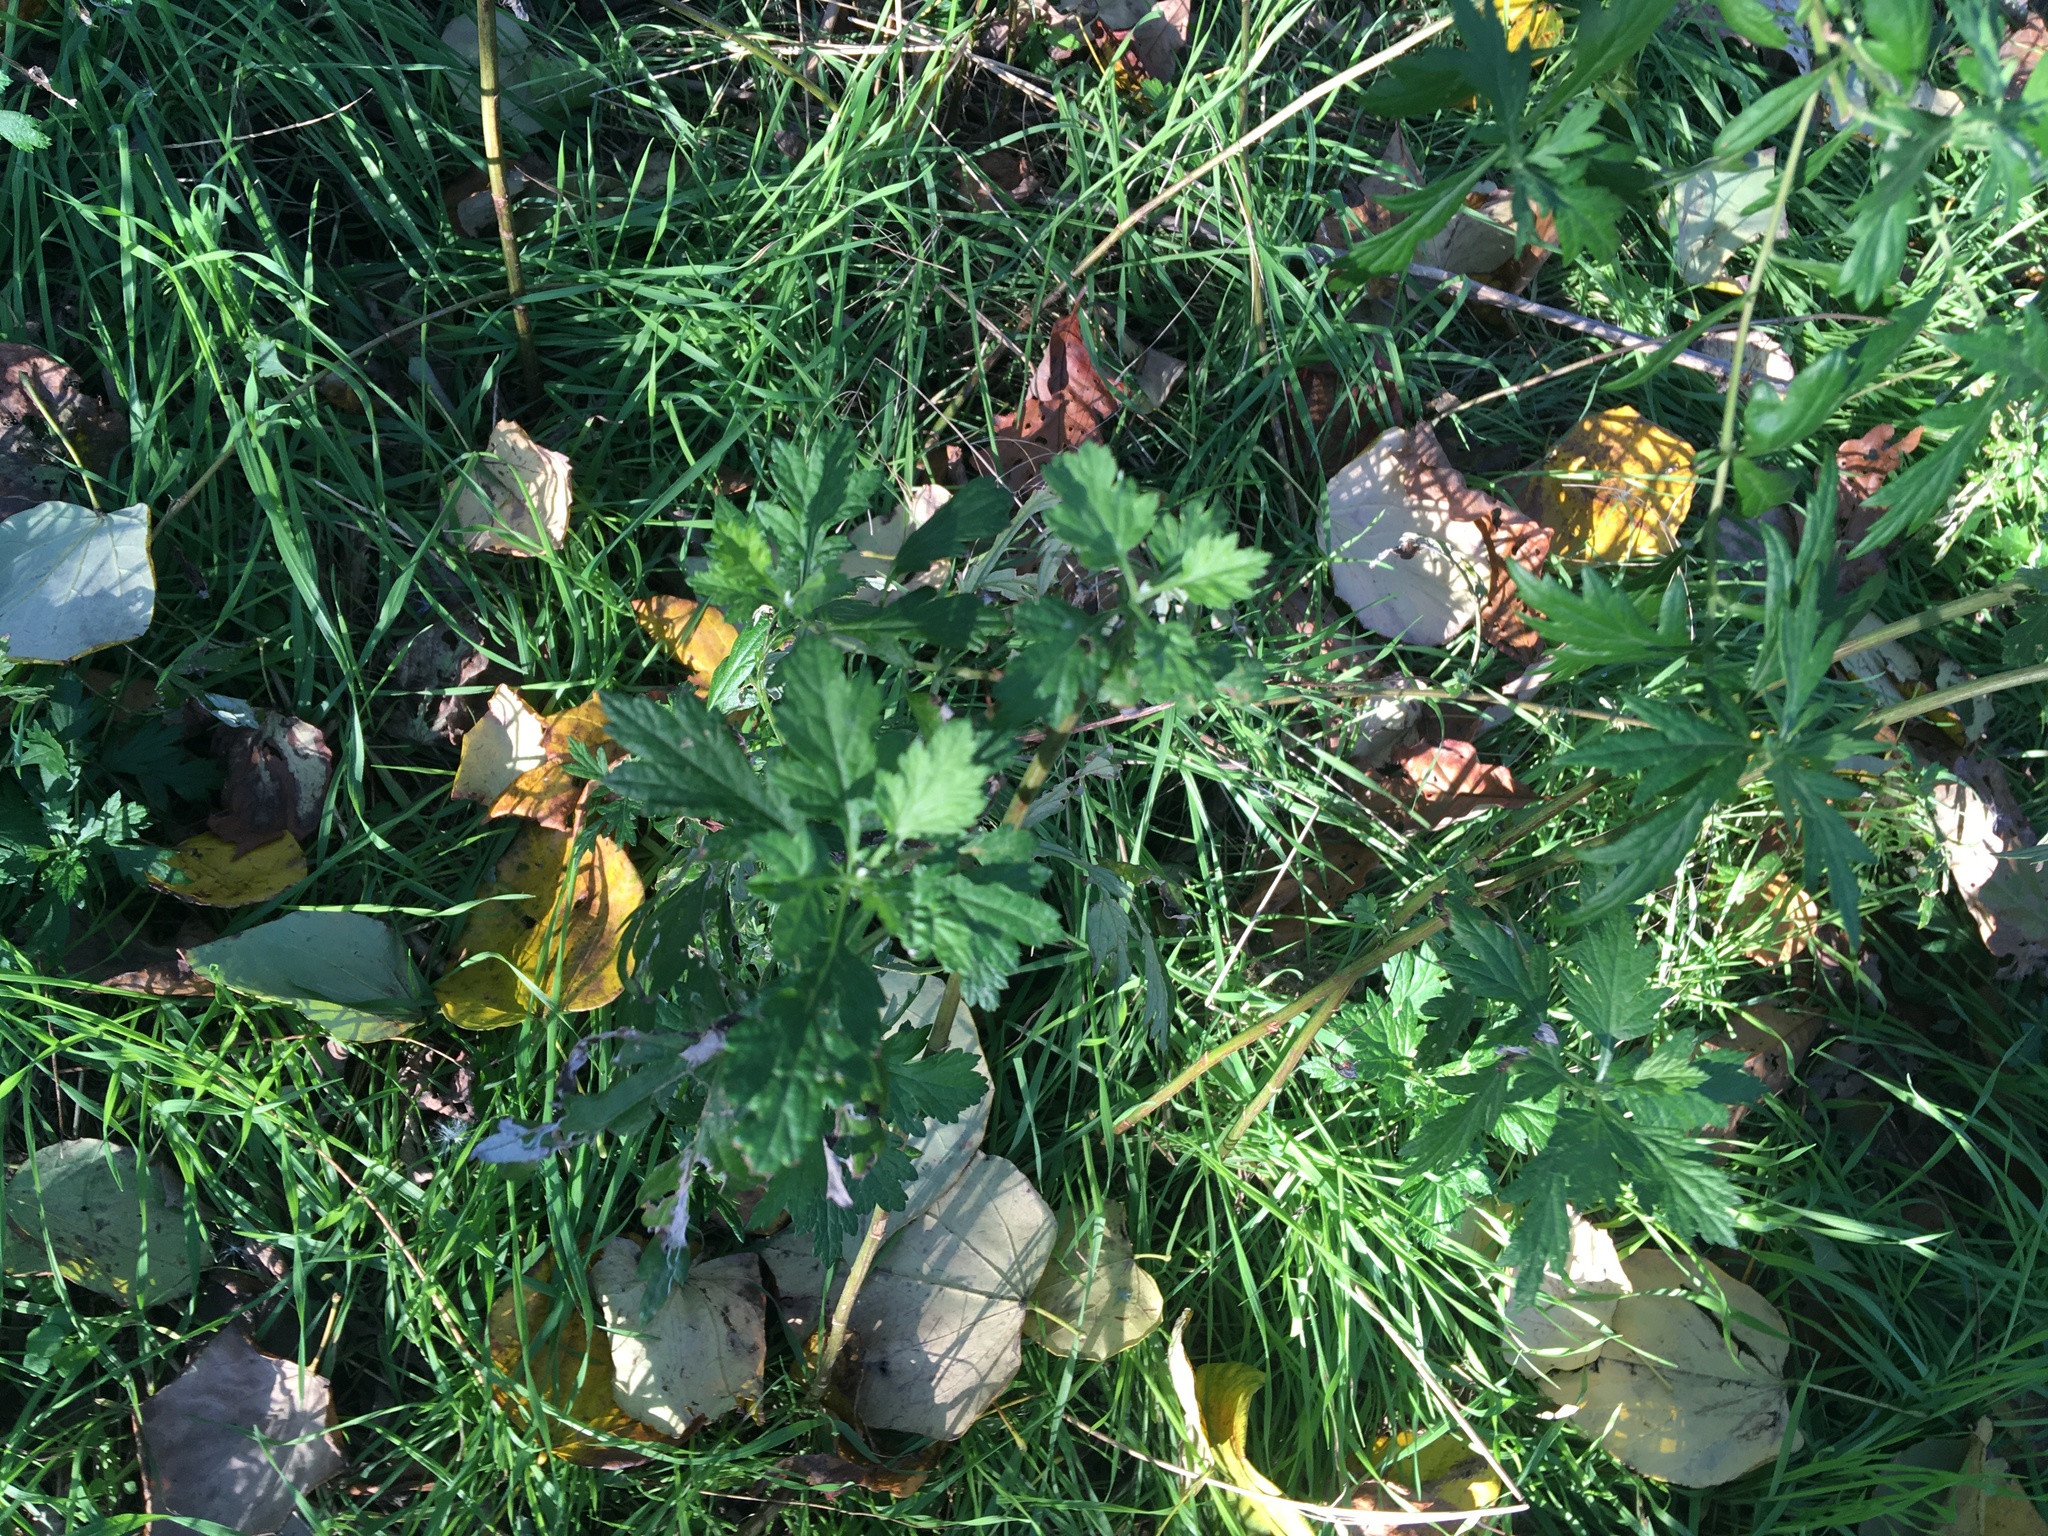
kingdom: Plantae
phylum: Tracheophyta
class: Magnoliopsida
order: Asterales
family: Asteraceae
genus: Artemisia
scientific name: Artemisia vulgaris
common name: Mugwort
